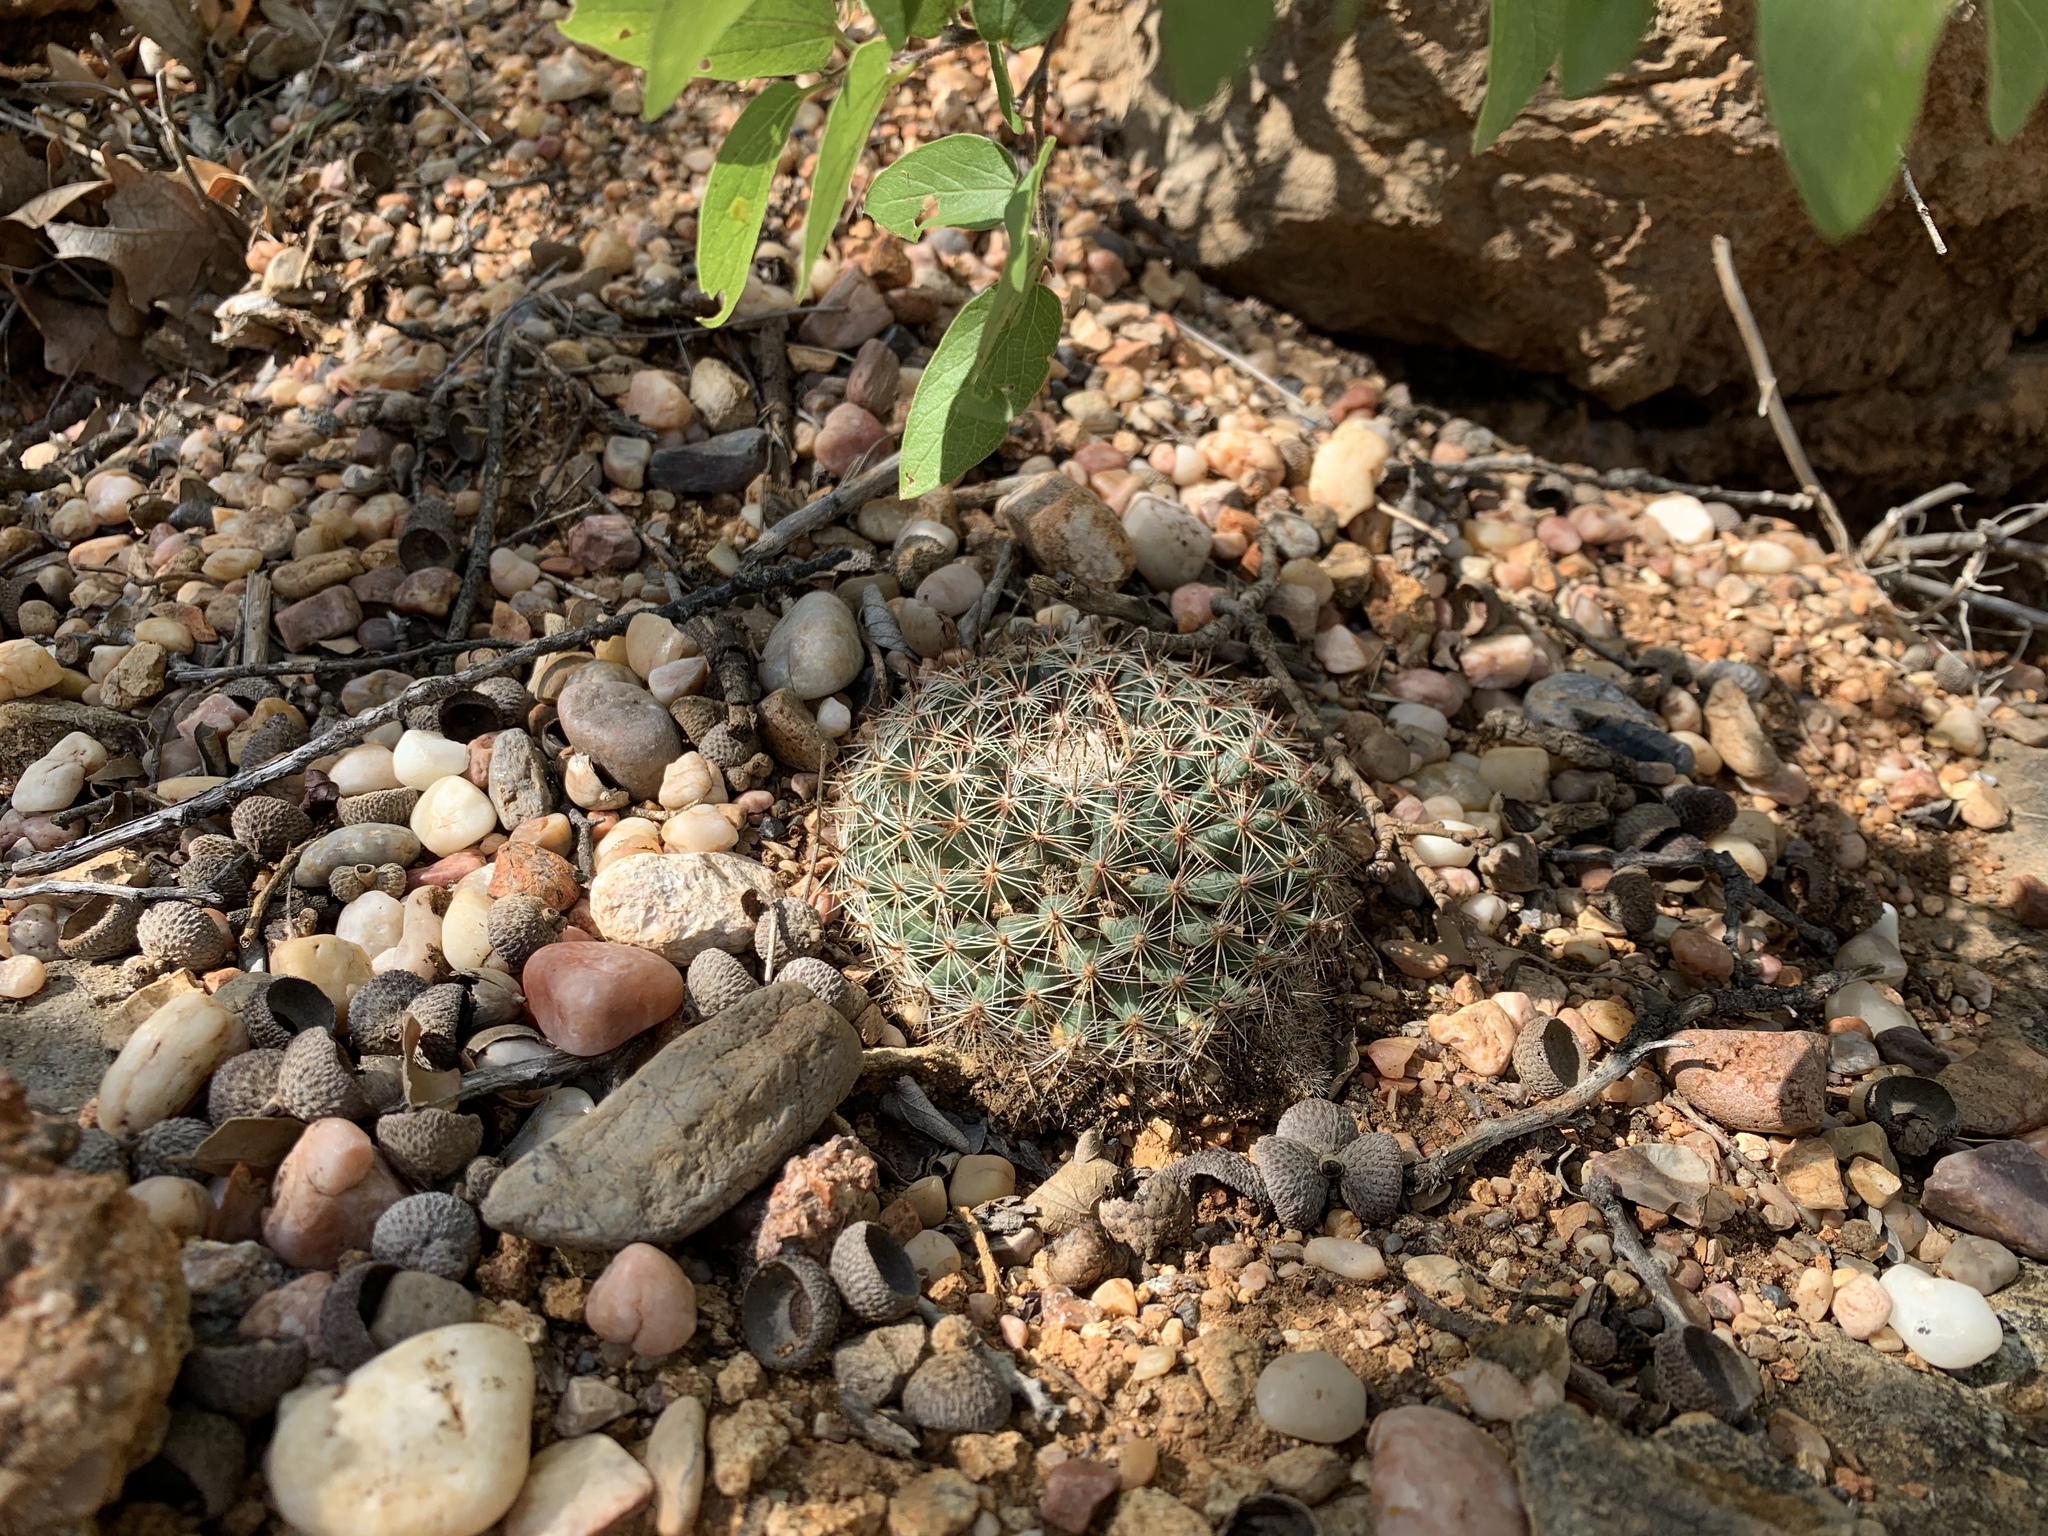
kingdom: Plantae
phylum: Tracheophyta
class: Magnoliopsida
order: Caryophyllales
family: Cactaceae
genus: Mammillaria
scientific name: Mammillaria heyderi
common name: Little nipple cactus
